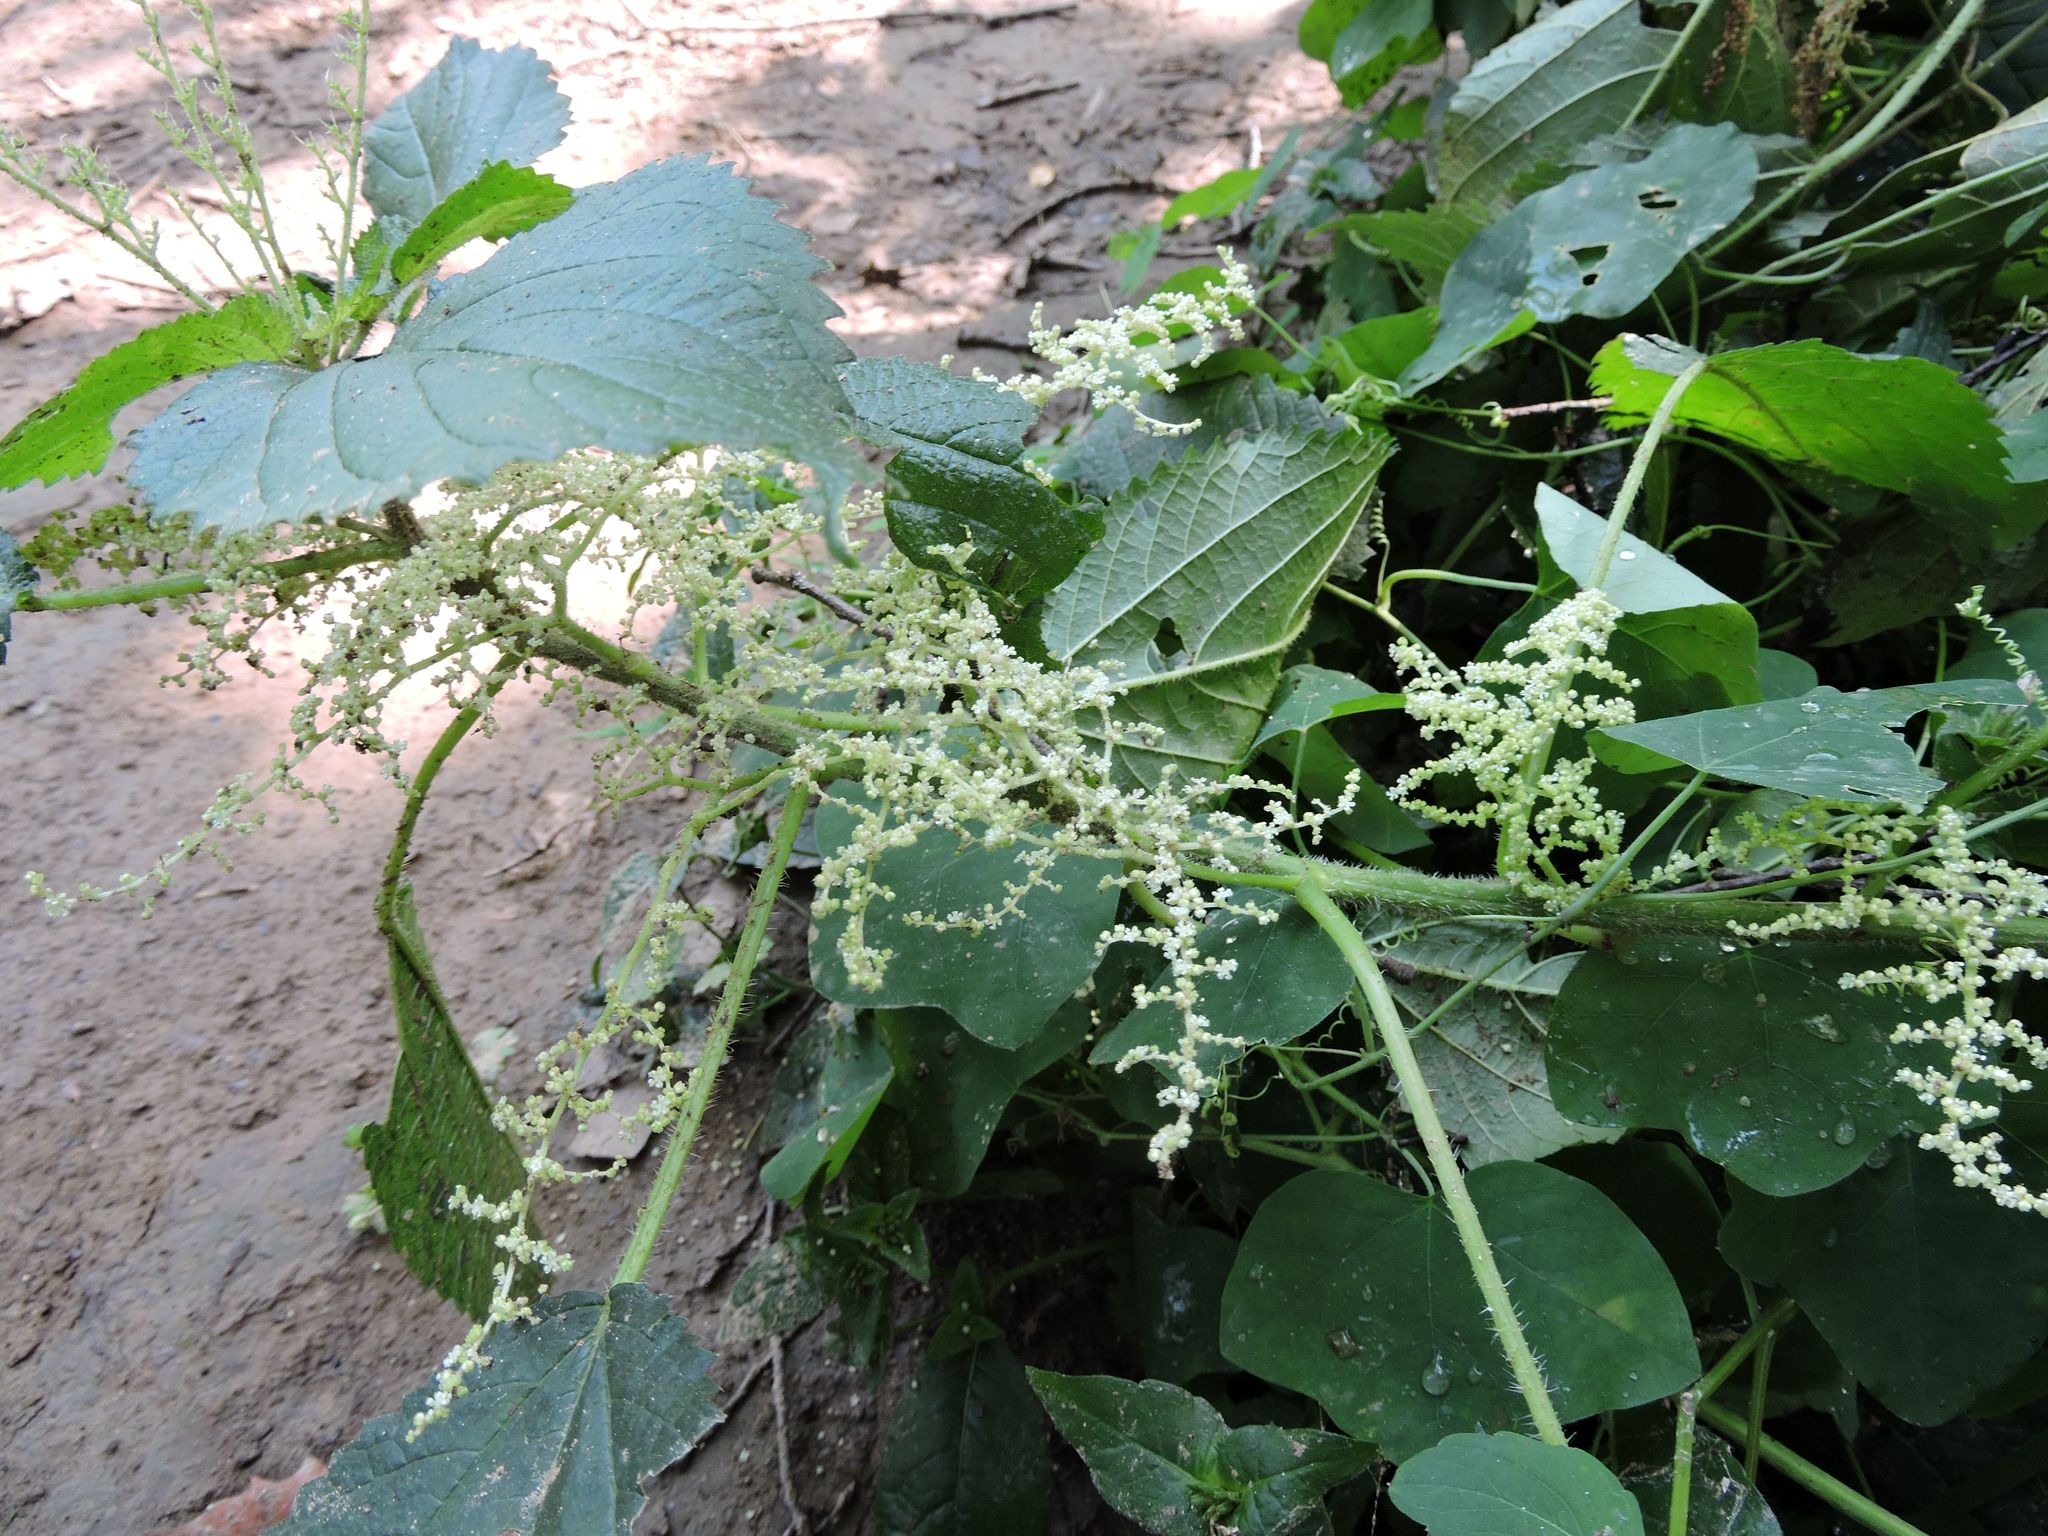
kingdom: Plantae
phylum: Tracheophyta
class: Magnoliopsida
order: Rosales
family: Urticaceae
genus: Laportea
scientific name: Laportea canadensis
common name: Canada nettle
